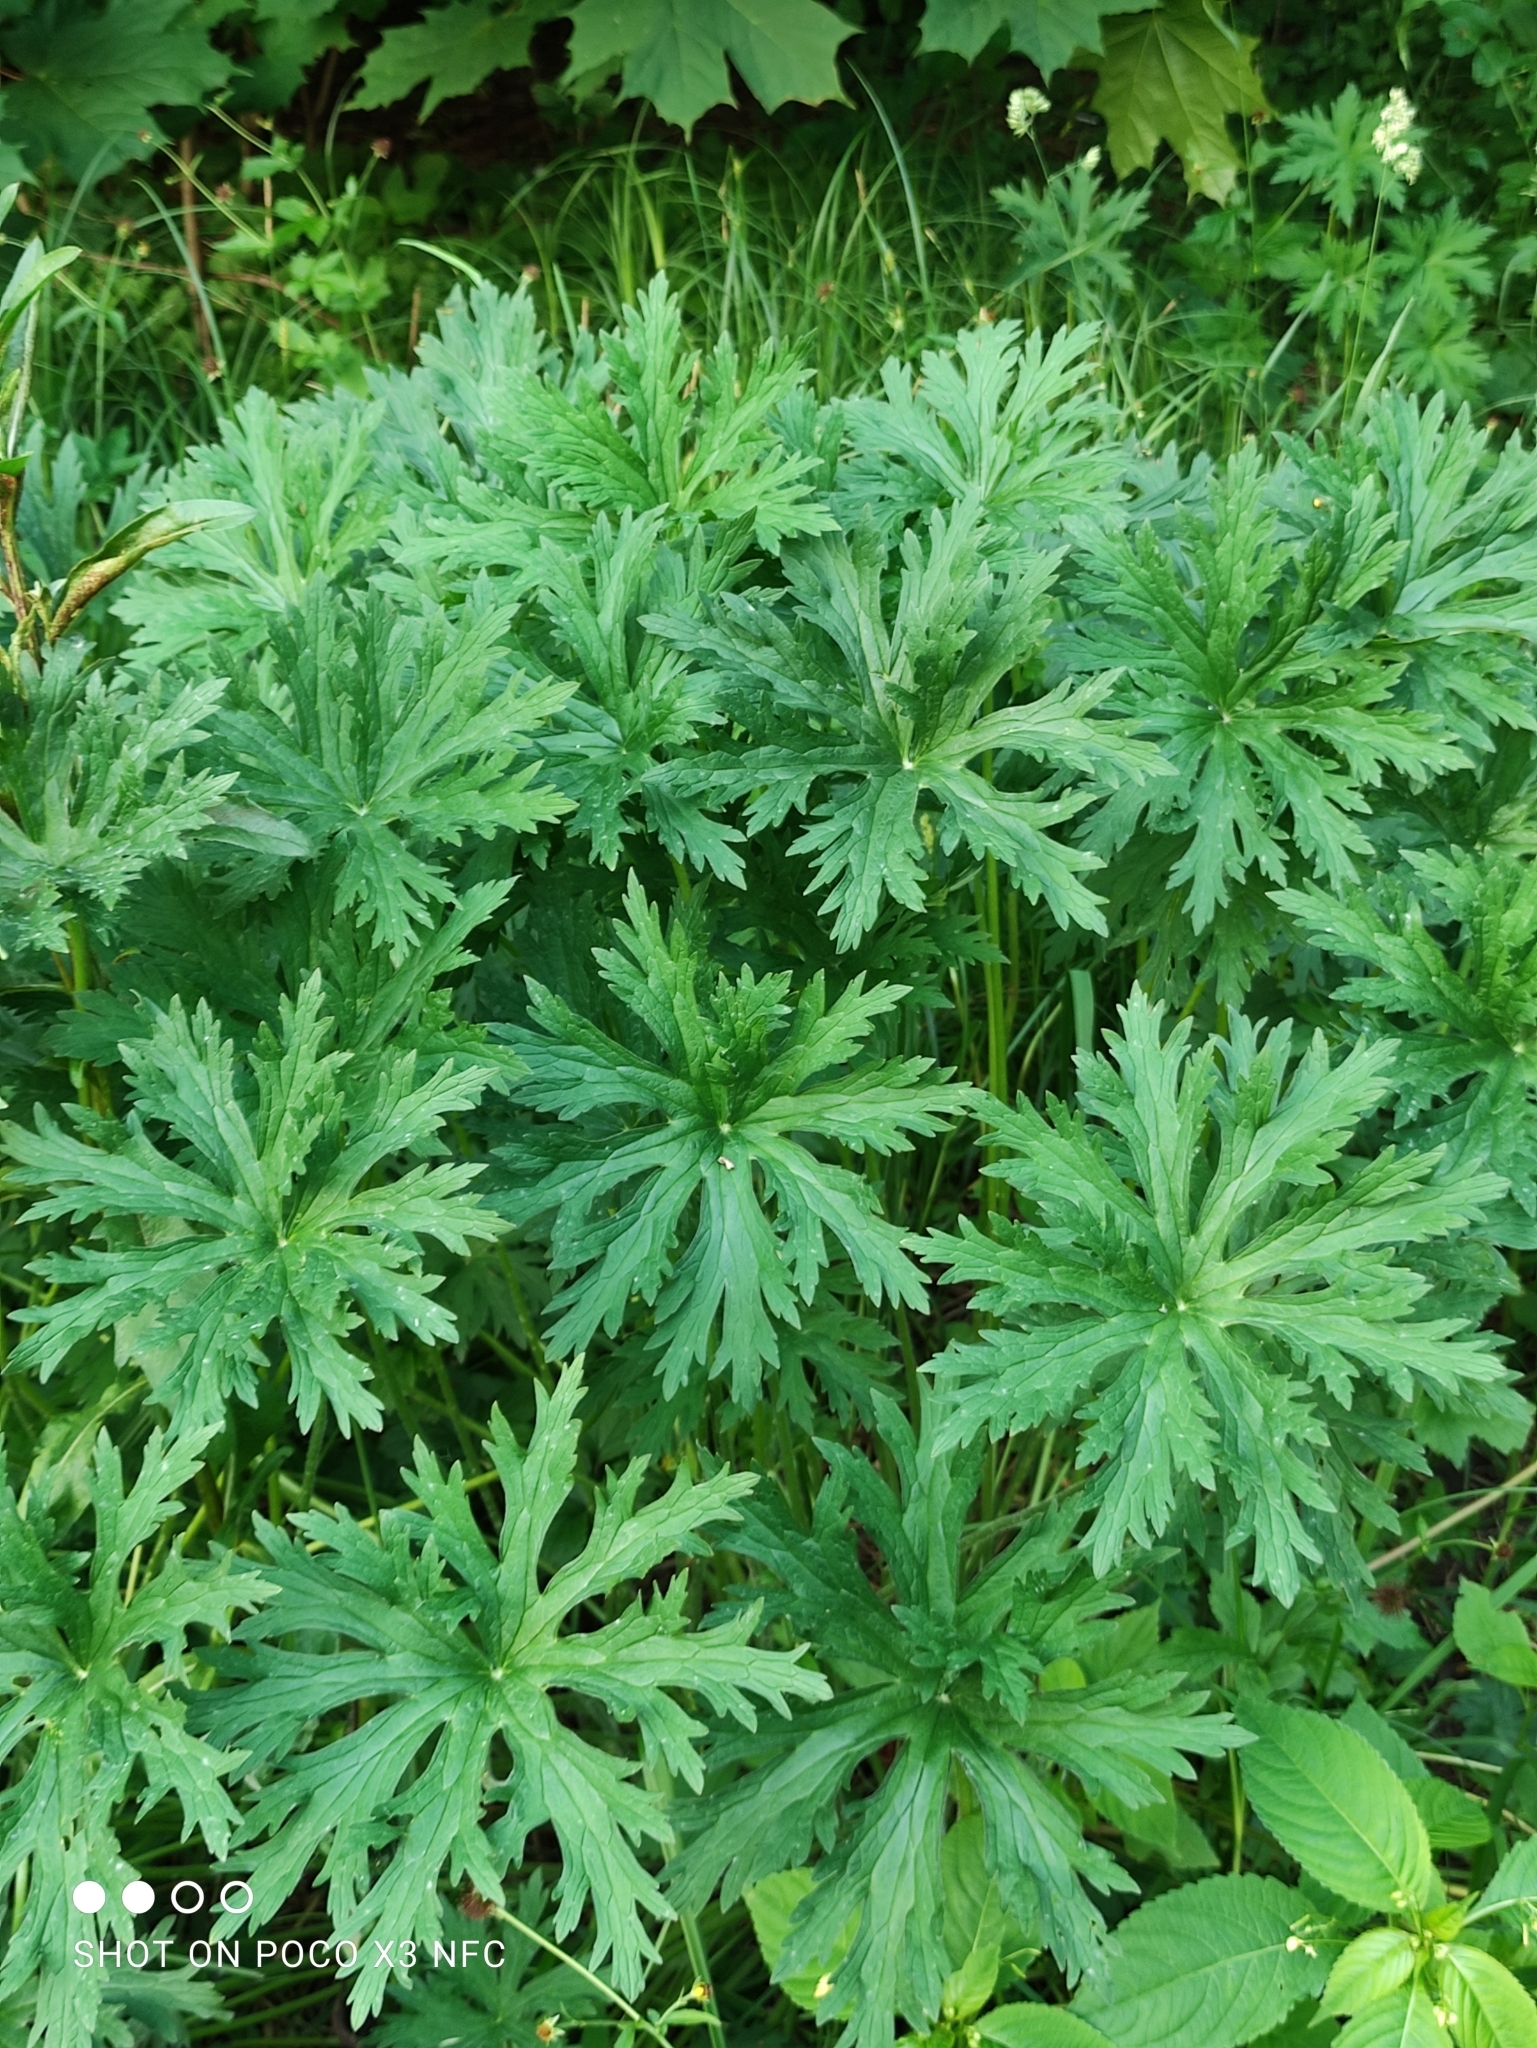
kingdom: Plantae
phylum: Tracheophyta
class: Magnoliopsida
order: Geraniales
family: Geraniaceae
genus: Geranium
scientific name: Geranium pratense
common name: Meadow crane's-bill
